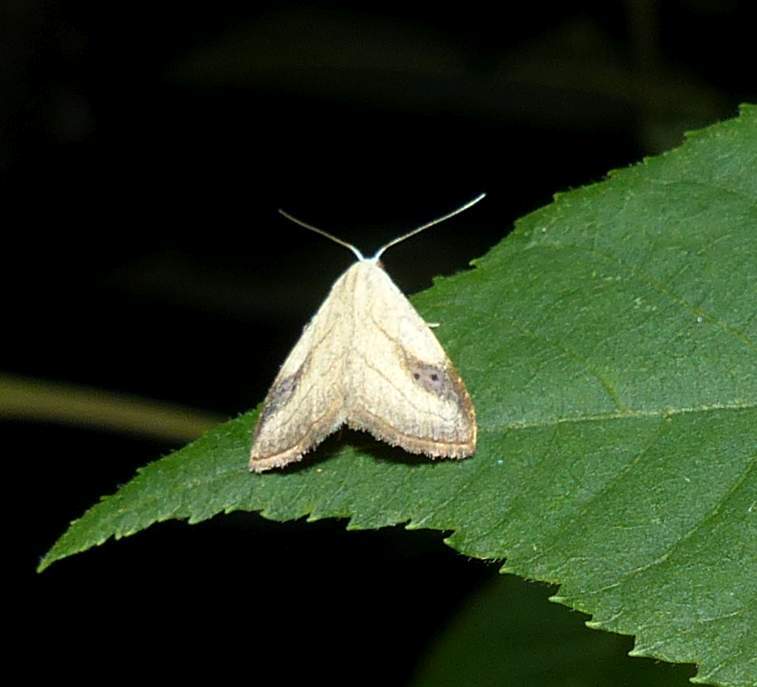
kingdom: Animalia
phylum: Arthropoda
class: Insecta
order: Lepidoptera
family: Erebidae
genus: Rivula
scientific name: Rivula propinqualis
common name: Spotted grass moth
